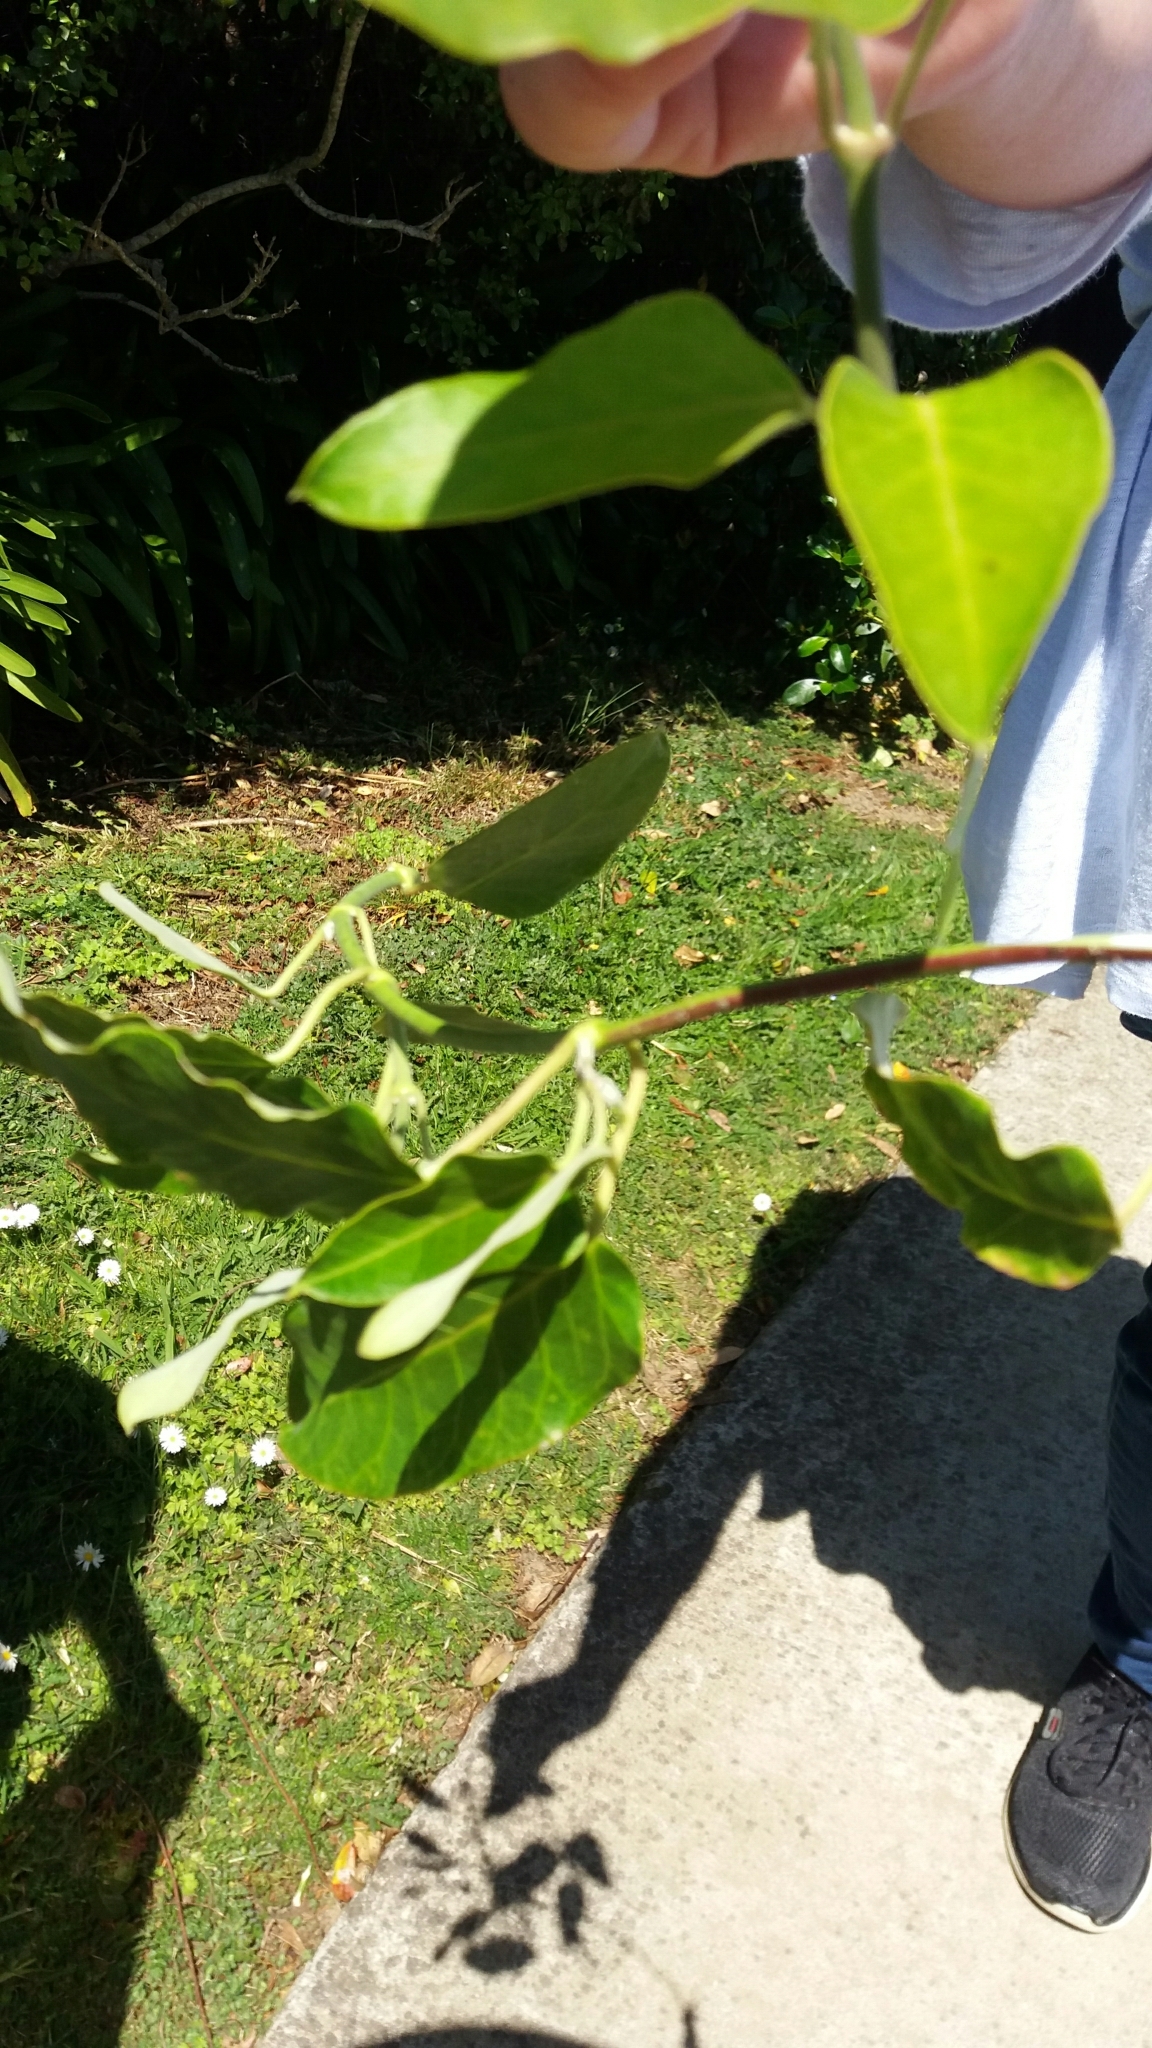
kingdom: Plantae
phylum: Tracheophyta
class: Magnoliopsida
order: Gentianales
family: Apocynaceae
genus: Araujia
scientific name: Araujia sericifera
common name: White bladderflower
